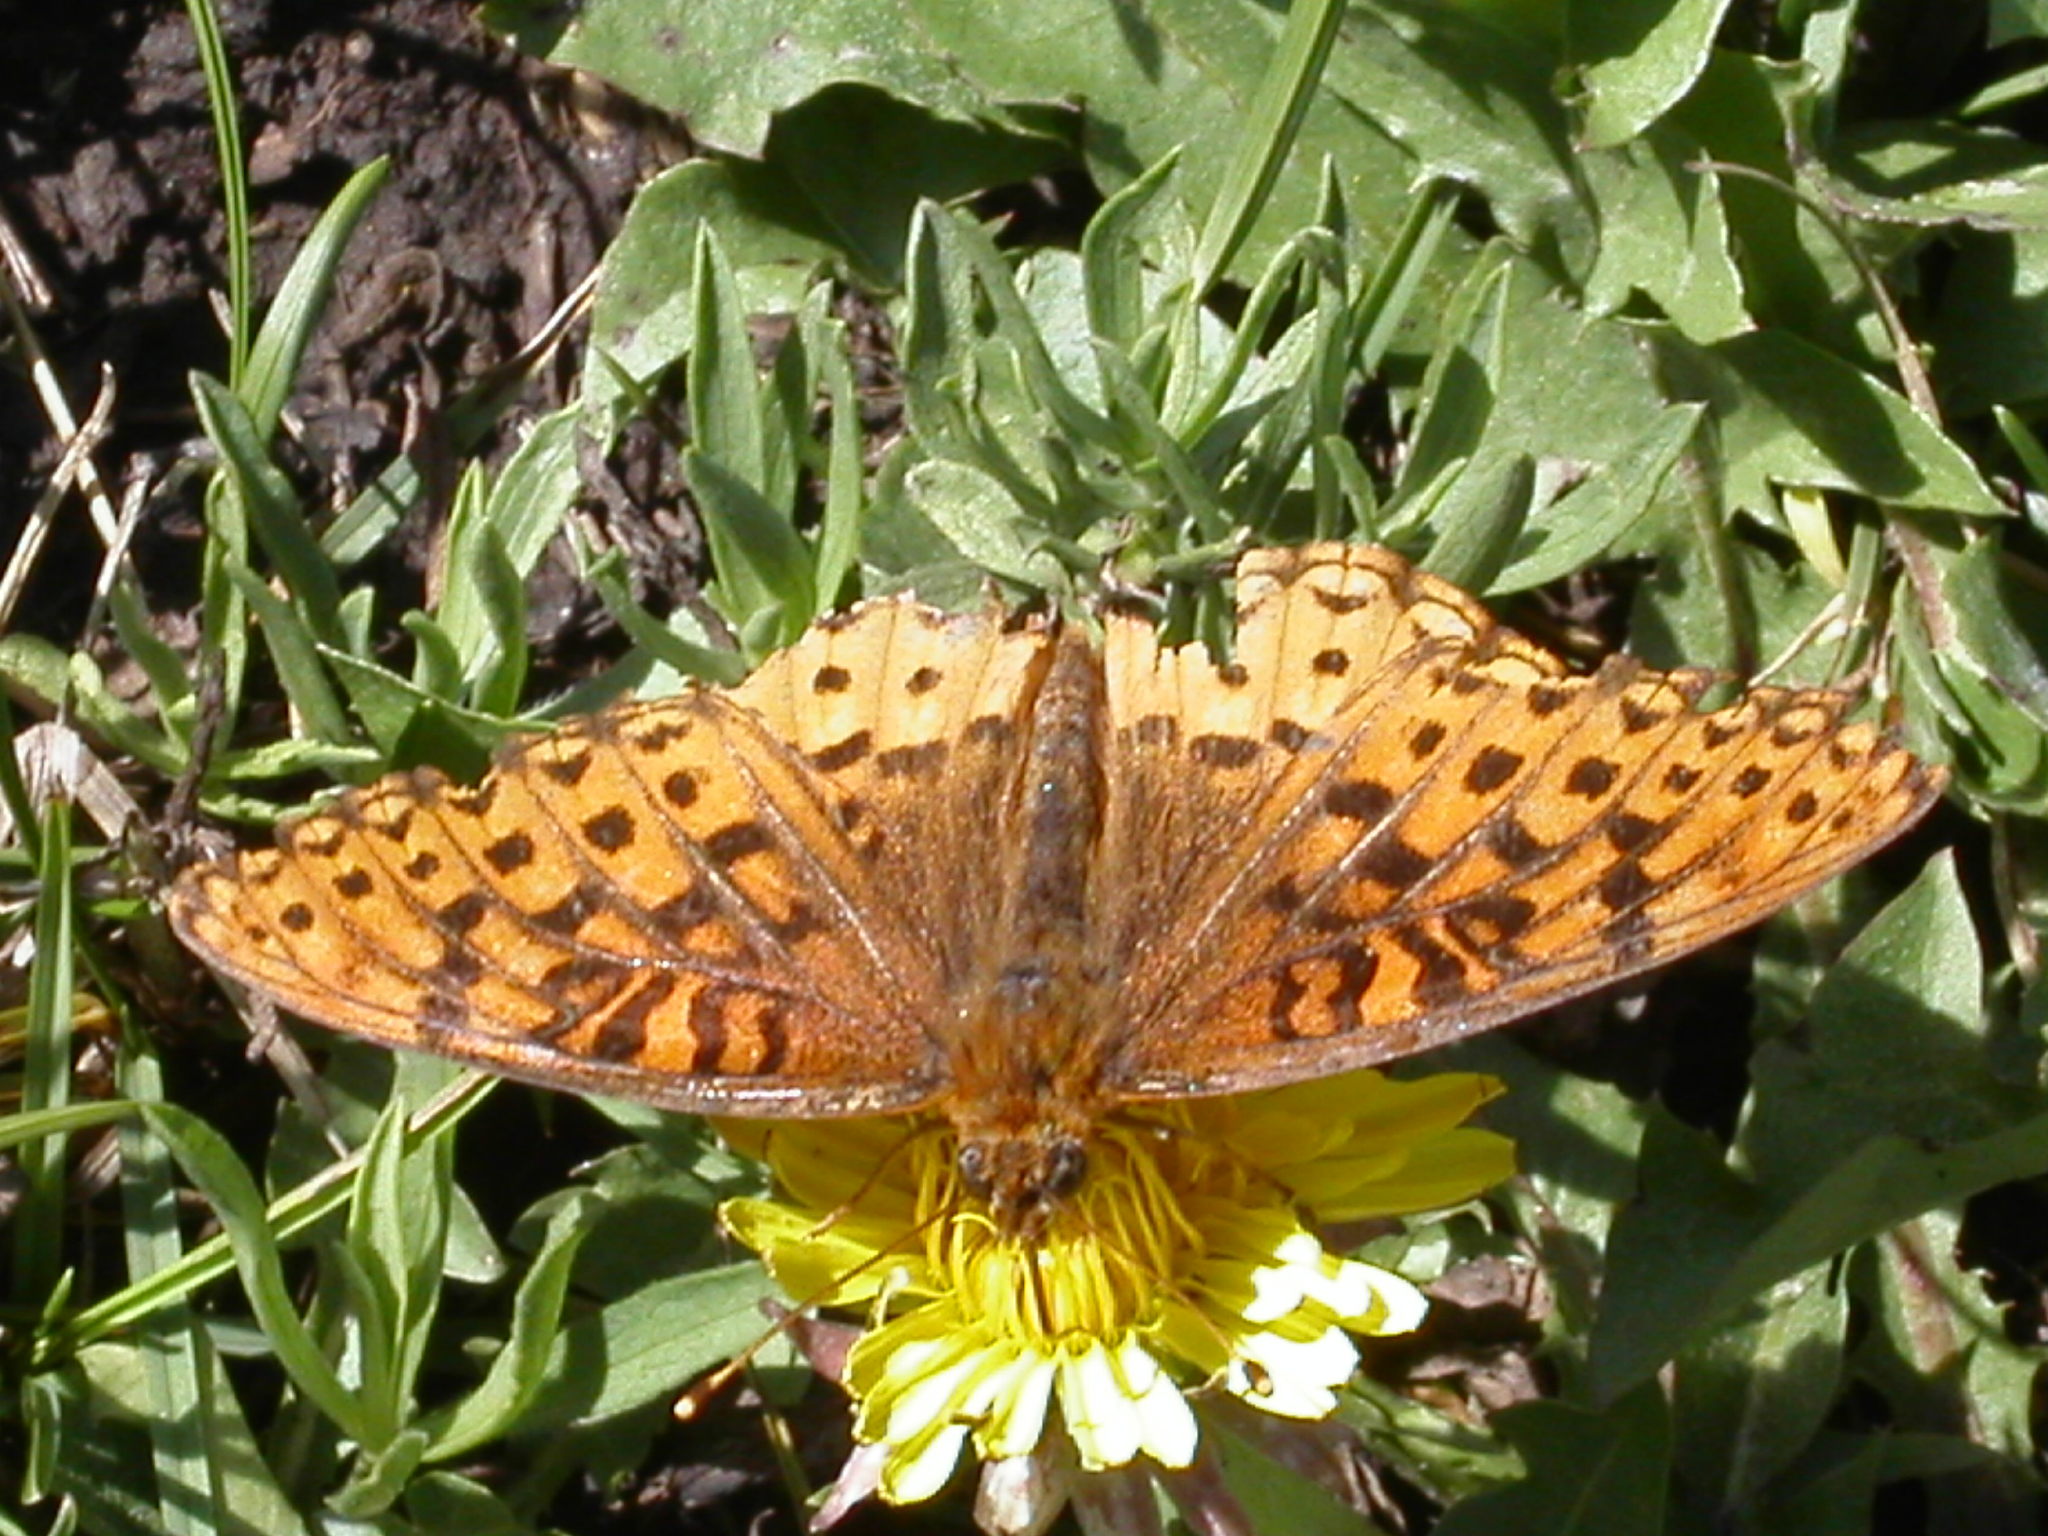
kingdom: Animalia
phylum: Arthropoda
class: Insecta
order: Lepidoptera
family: Nymphalidae
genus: Speyeria
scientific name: Speyeria atlantis
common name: Atlantis fritillary
